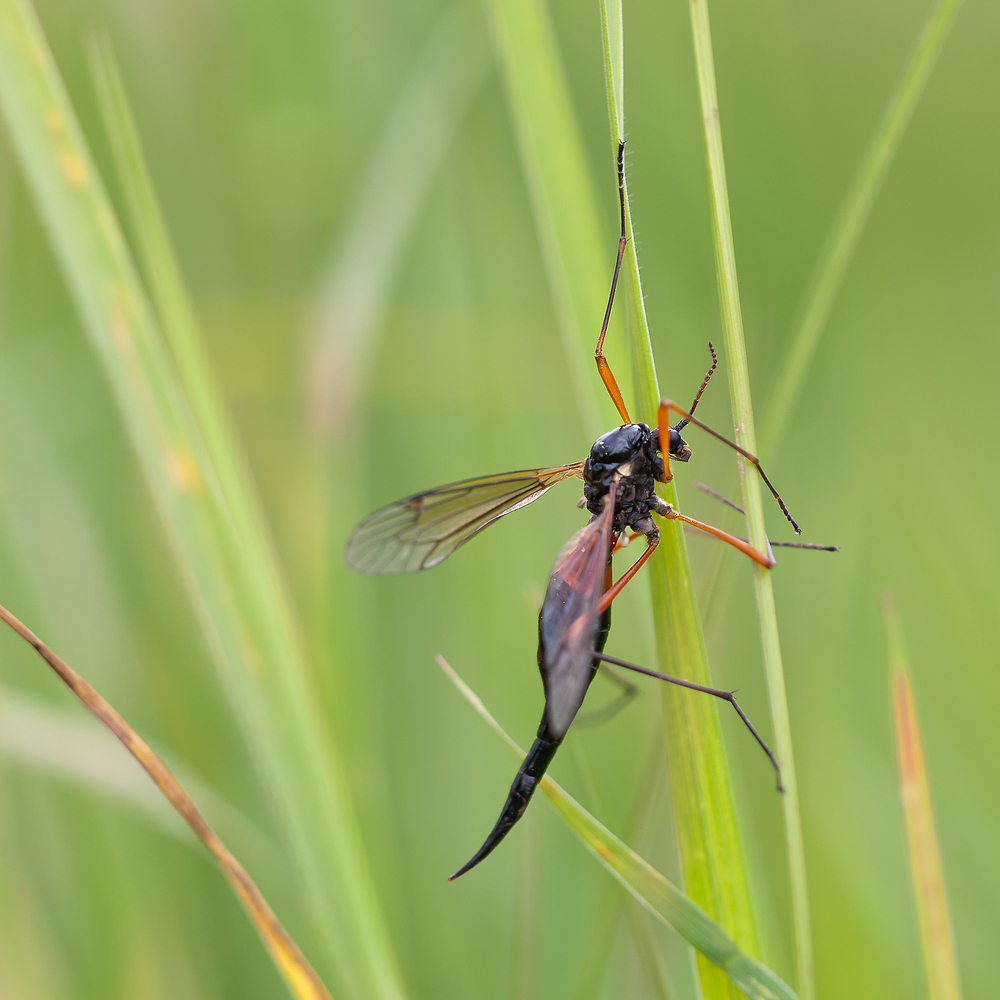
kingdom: Animalia
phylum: Arthropoda
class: Insecta
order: Diptera
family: Tipulidae
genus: Tanyptera
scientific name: Tanyptera atrata
